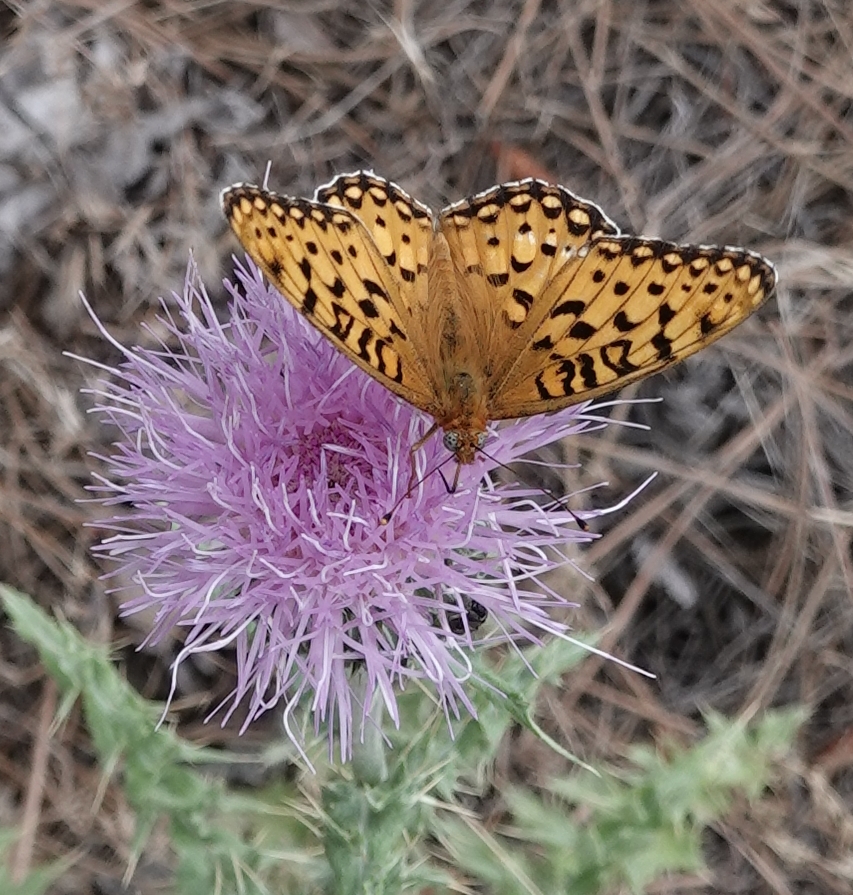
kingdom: Animalia
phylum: Arthropoda
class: Insecta
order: Lepidoptera
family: Nymphalidae
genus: Speyeria
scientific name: Speyeria edwardsii
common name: Edwards' fritillary
